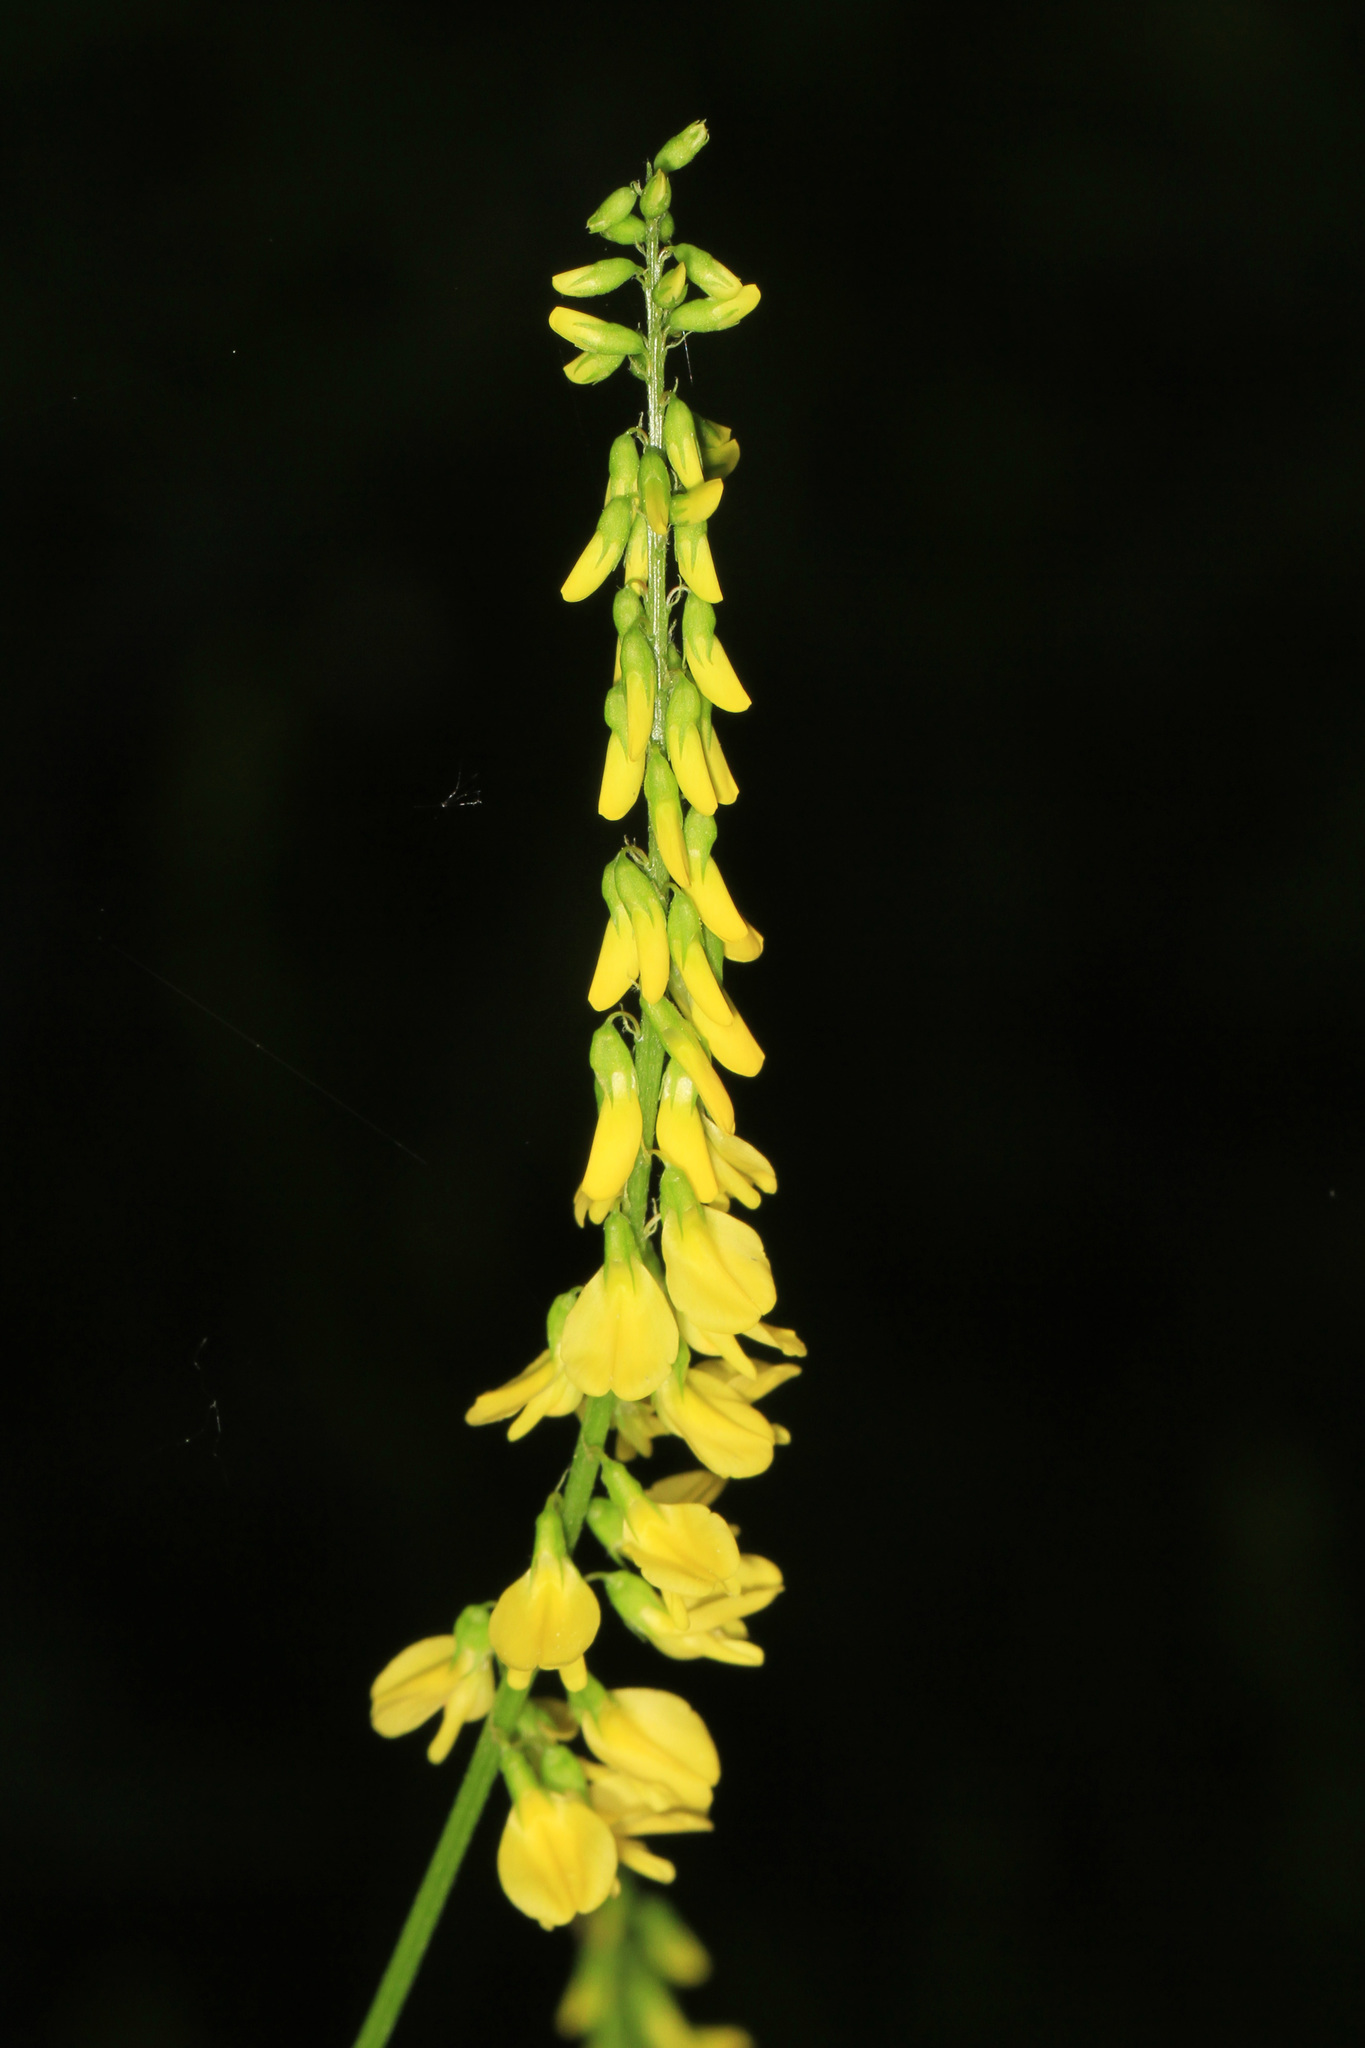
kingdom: Plantae
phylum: Tracheophyta
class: Magnoliopsida
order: Fabales
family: Fabaceae
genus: Melilotus
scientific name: Melilotus officinalis
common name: Sweetclover
